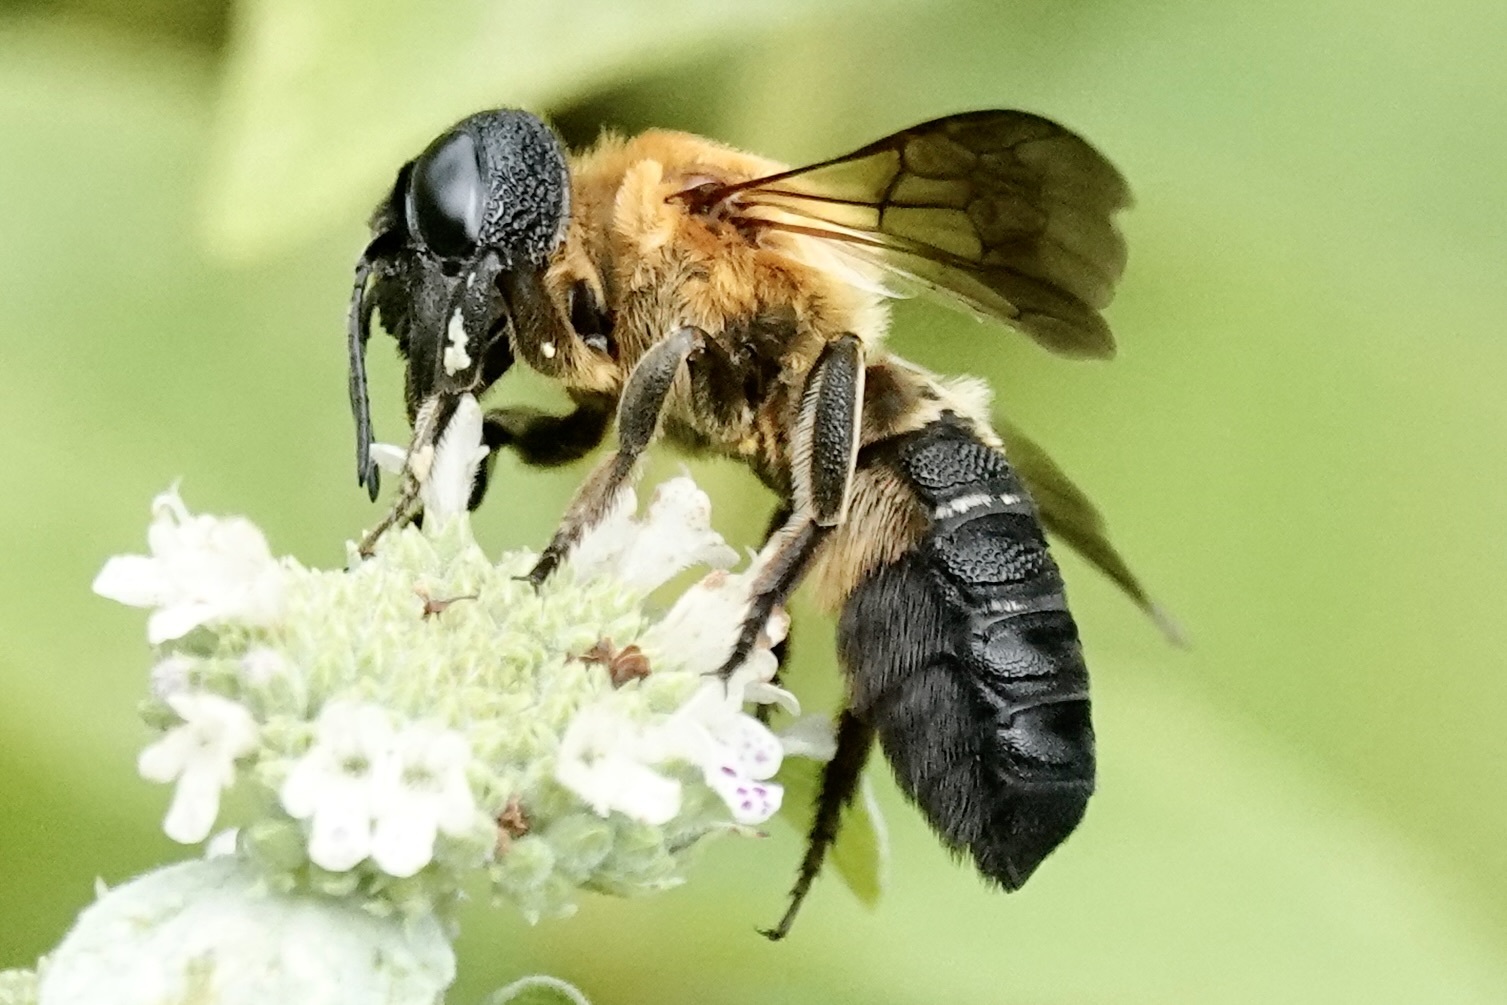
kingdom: Animalia
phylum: Arthropoda
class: Insecta
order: Hymenoptera
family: Megachilidae
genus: Megachile
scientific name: Megachile sculpturalis
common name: Sculptured resin bee
